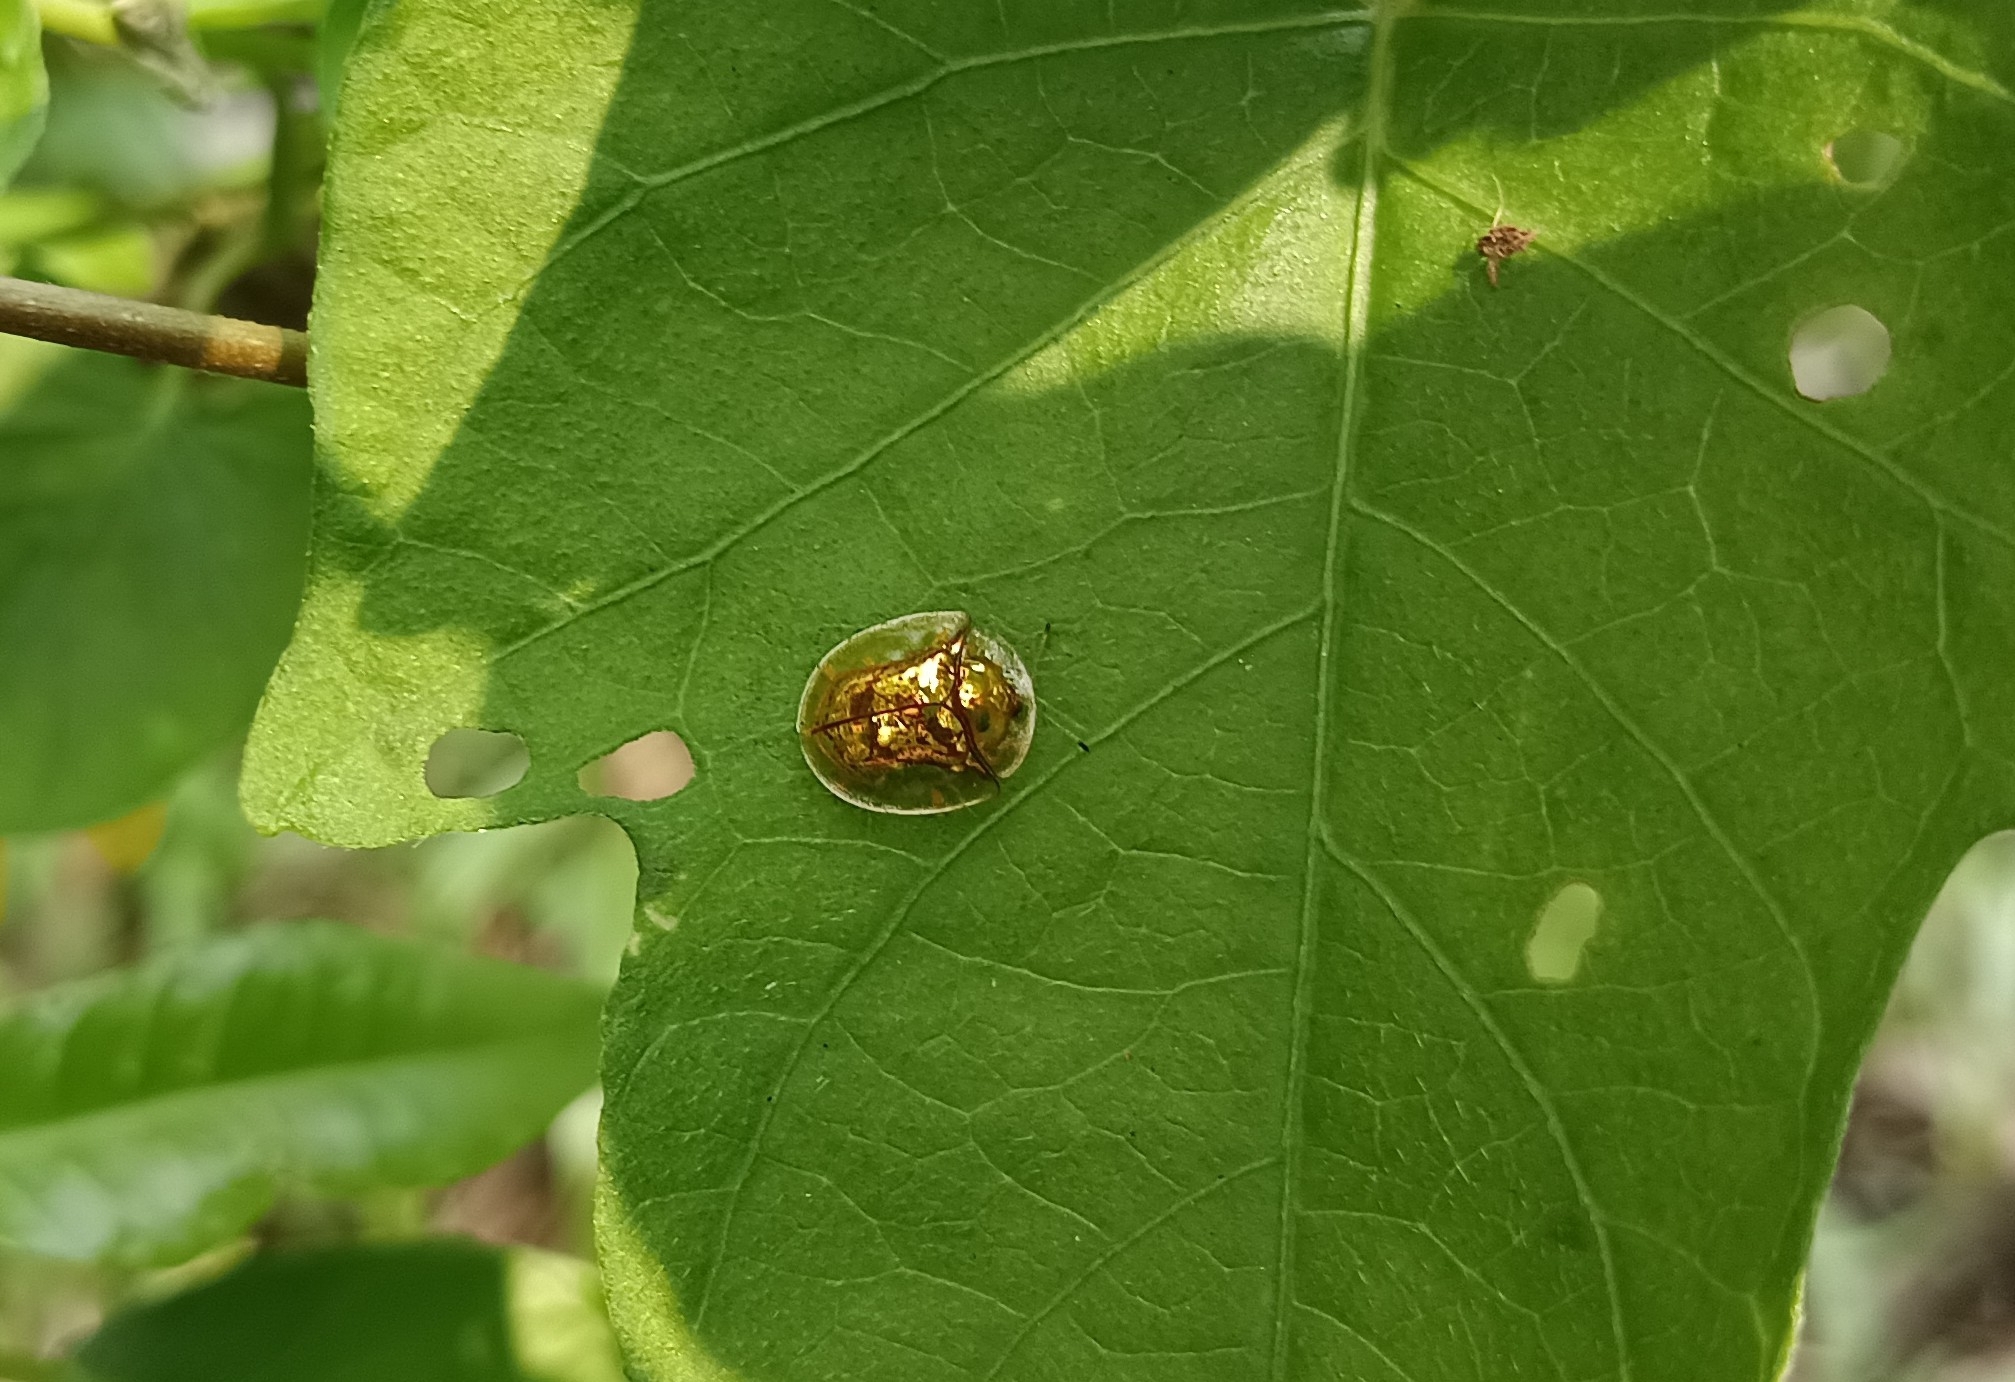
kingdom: Animalia
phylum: Arthropoda
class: Insecta
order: Coleoptera
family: Chrysomelidae
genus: Aspidimorpha
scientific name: Aspidimorpha furcata
